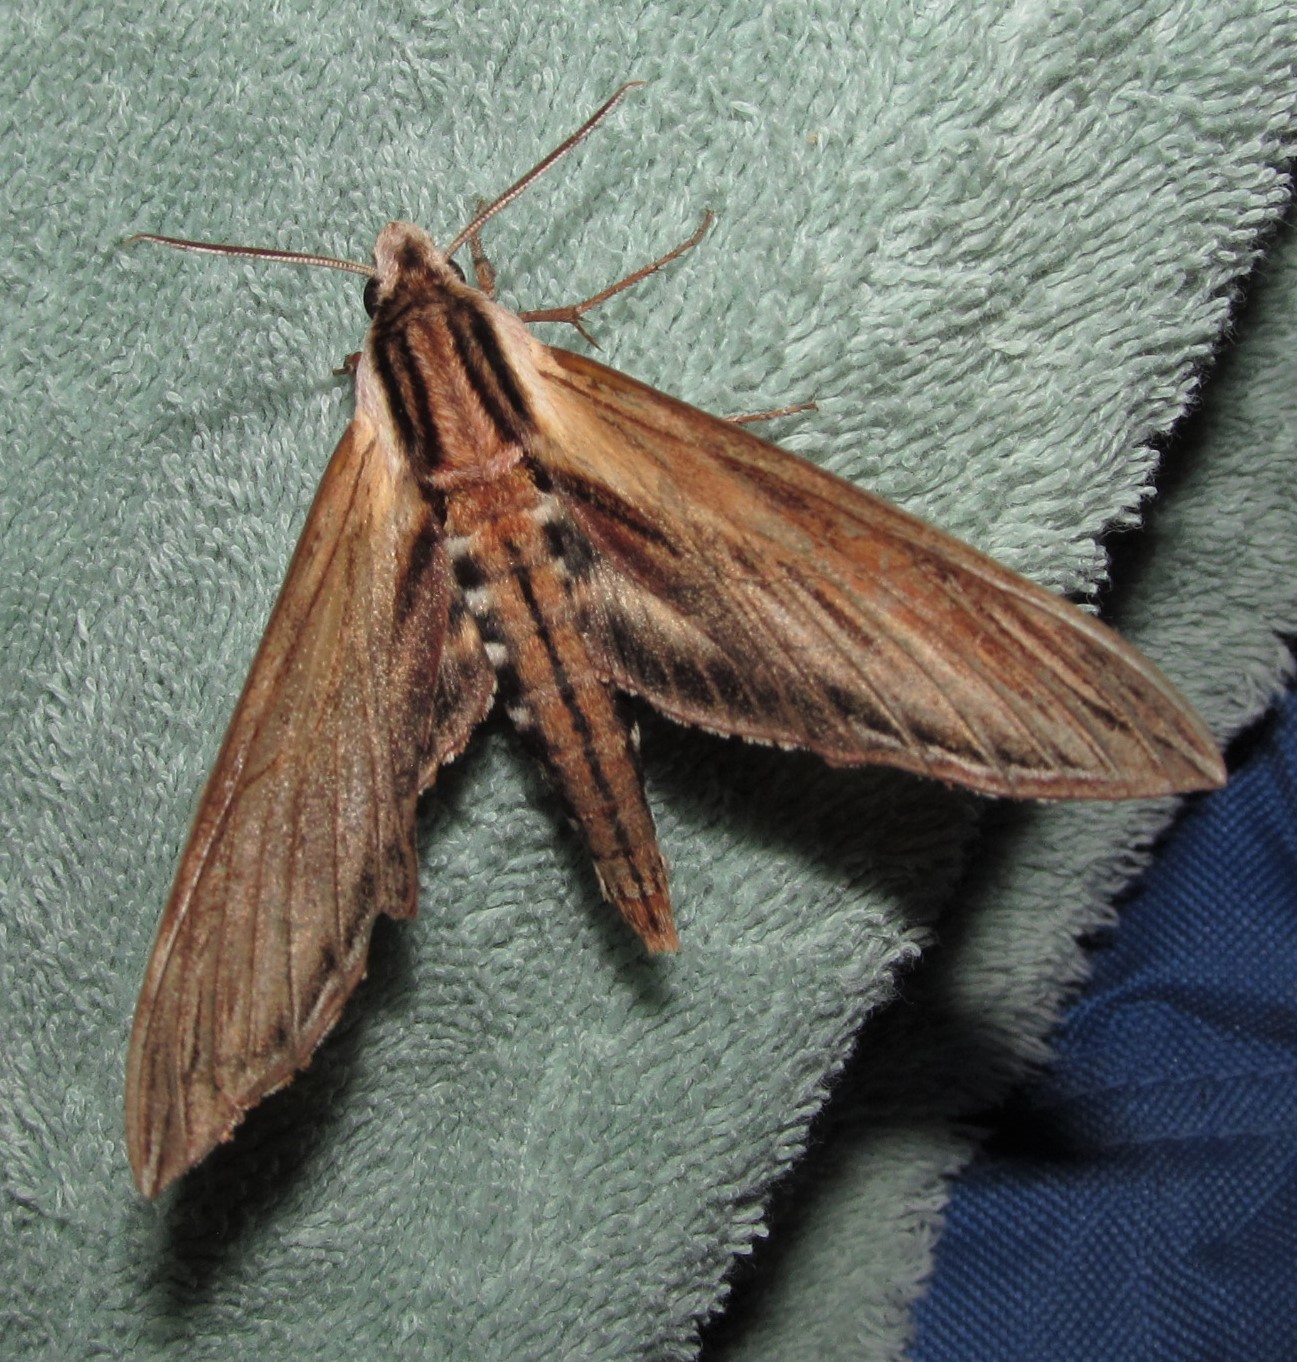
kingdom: Animalia
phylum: Arthropoda
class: Insecta
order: Lepidoptera
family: Sphingidae
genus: Sphinx
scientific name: Sphinx kalmiae
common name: Laurel sphinx
